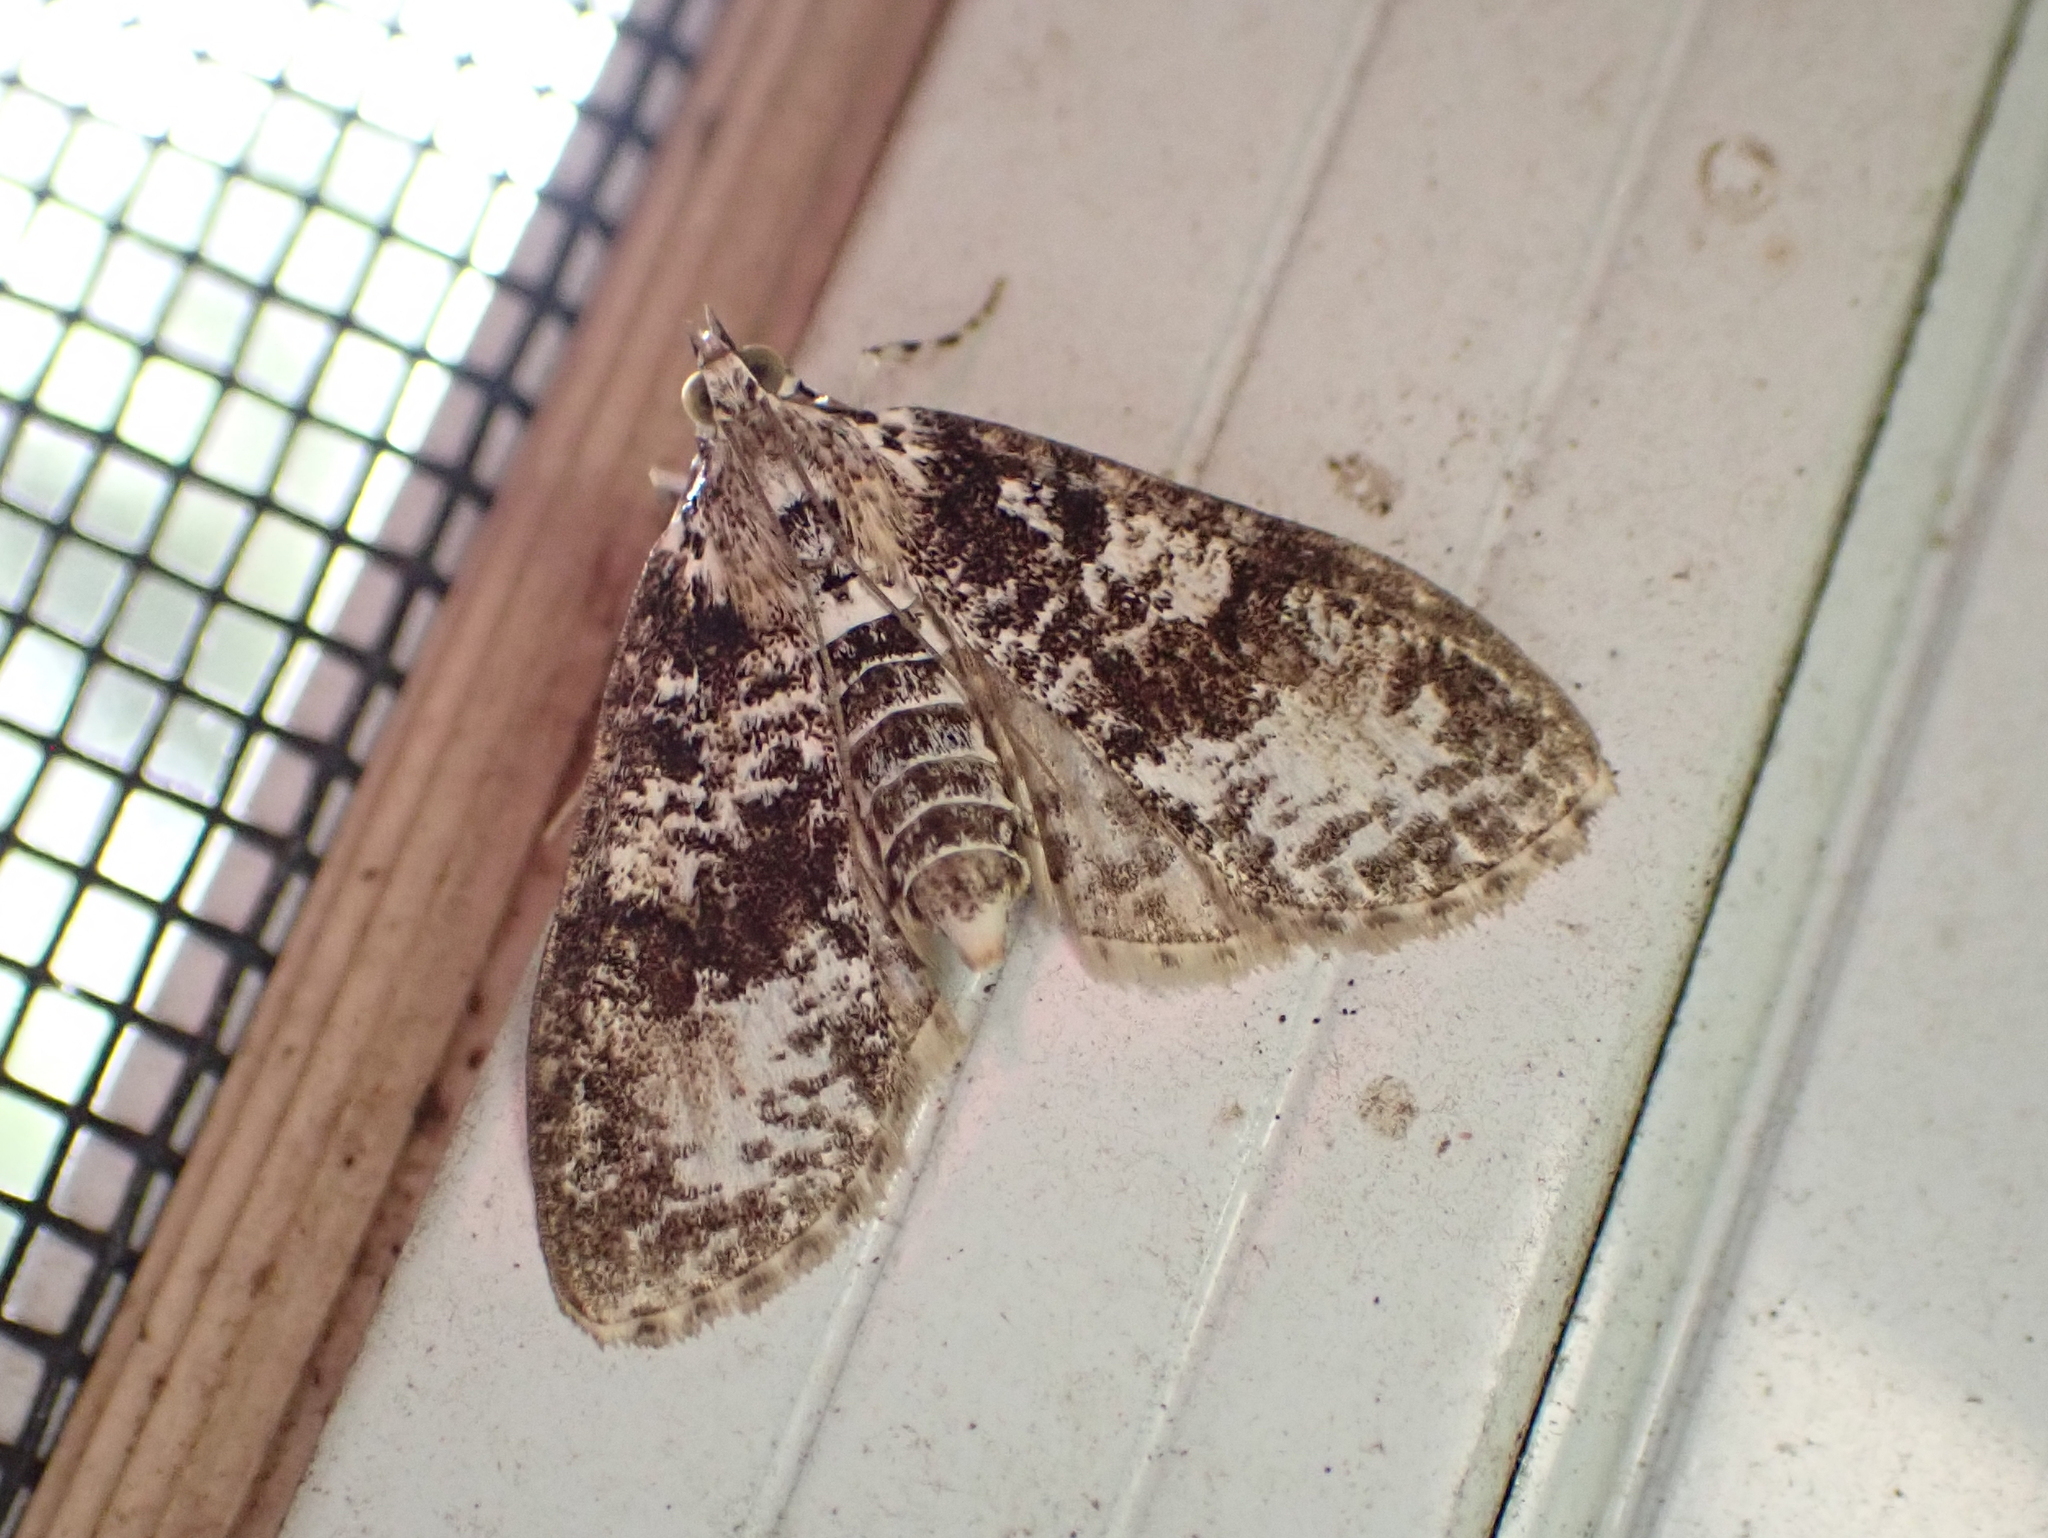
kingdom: Animalia
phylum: Arthropoda
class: Insecta
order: Lepidoptera
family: Crambidae
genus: Palpita
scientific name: Palpita magniferalis
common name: Splendid palpita moth
